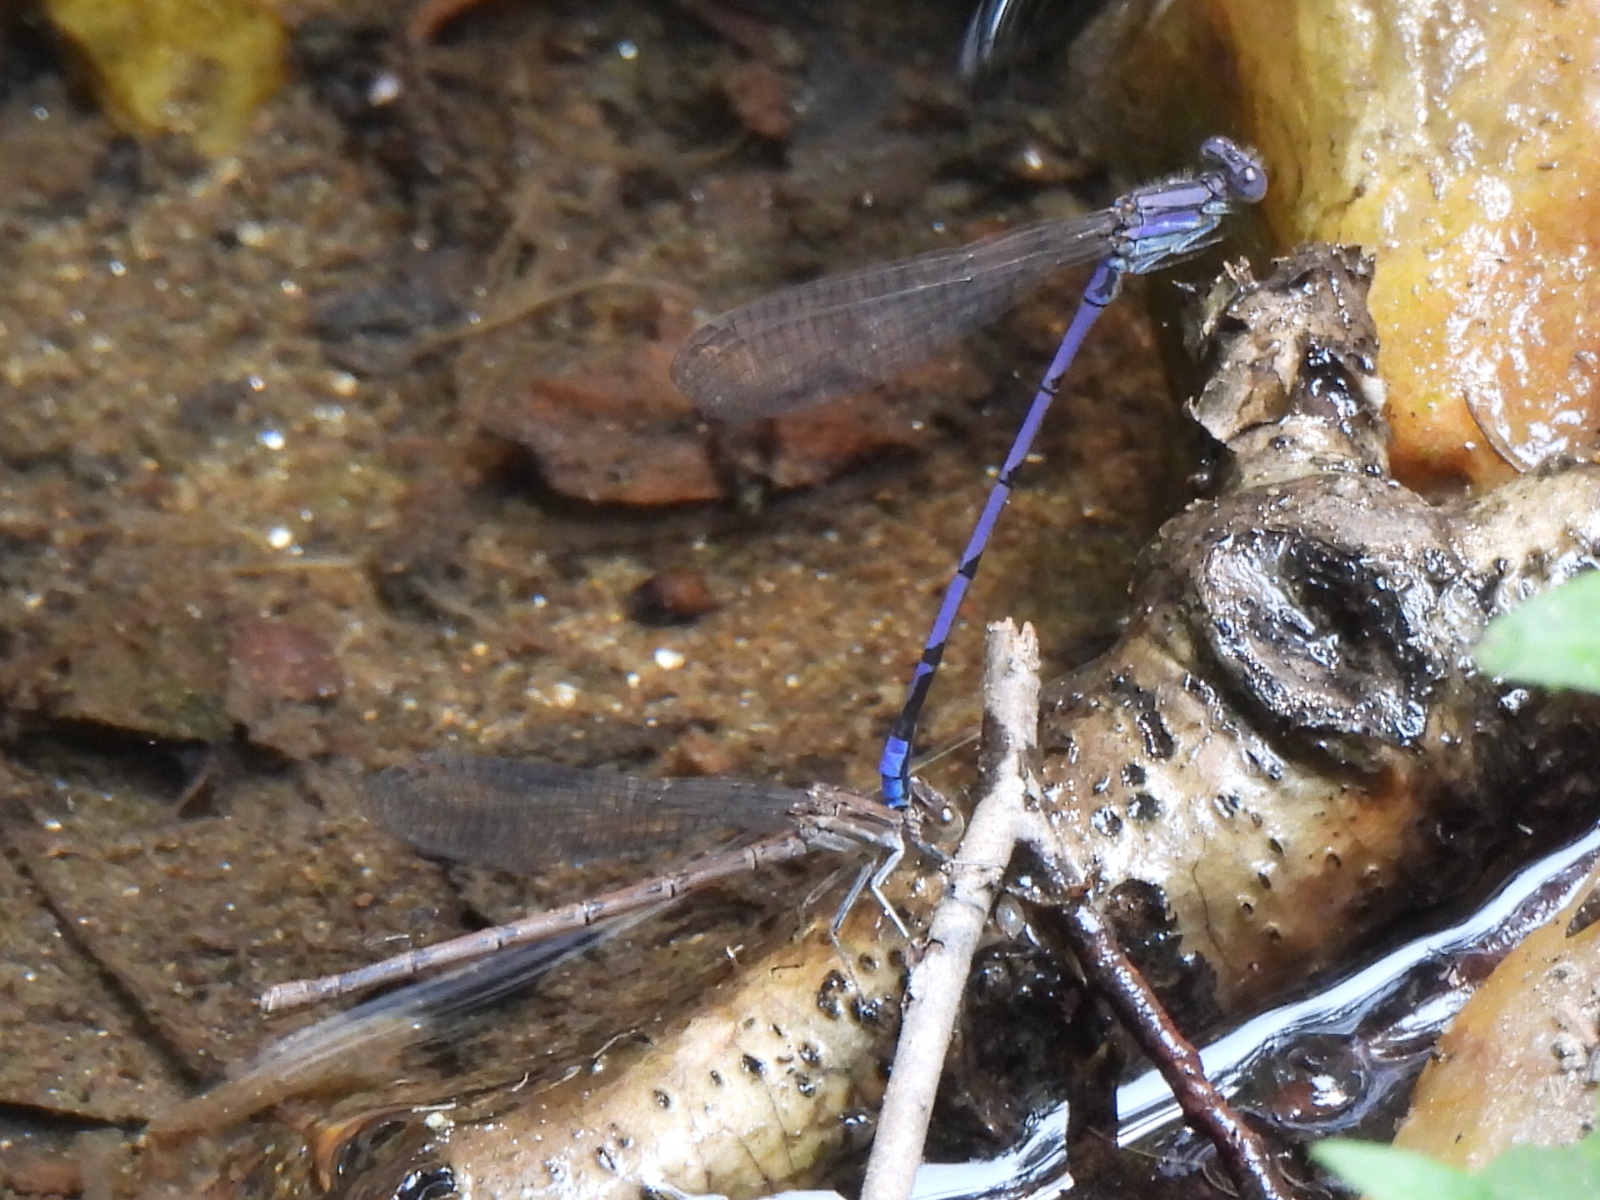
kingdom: Animalia
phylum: Arthropoda
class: Insecta
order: Odonata
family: Coenagrionidae
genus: Argia
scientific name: Argia fumipennis
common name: Variable dancer
